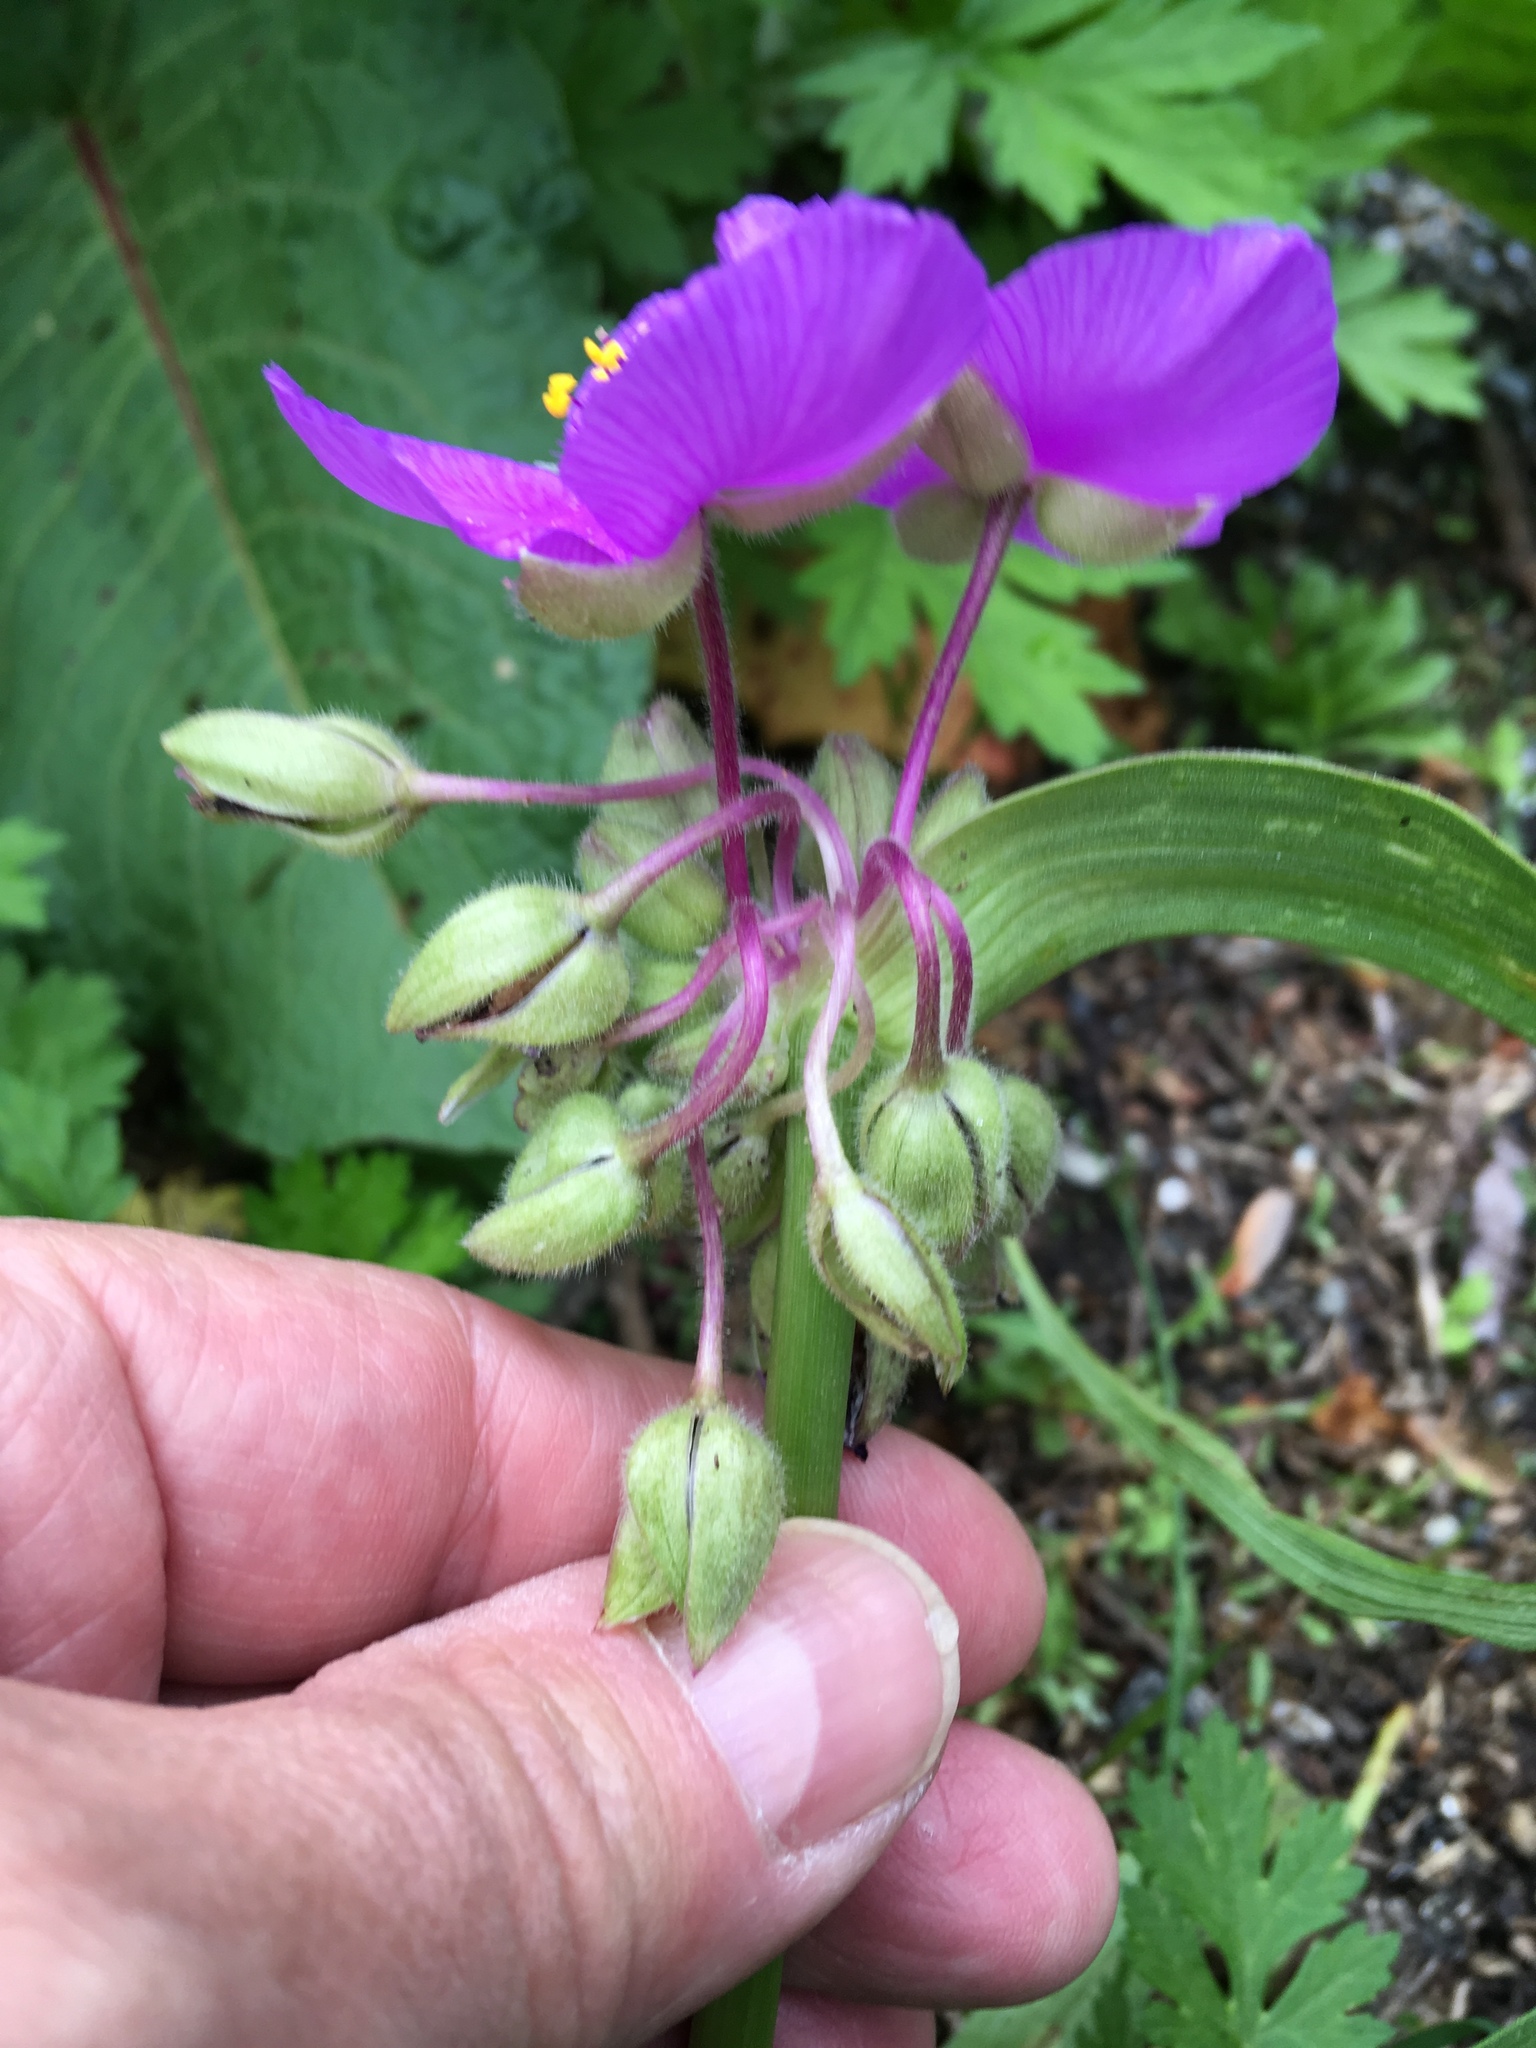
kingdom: Plantae
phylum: Tracheophyta
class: Liliopsida
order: Commelinales
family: Commelinaceae
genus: Tradescantia
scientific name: Tradescantia virginiana
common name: Spiderwort
